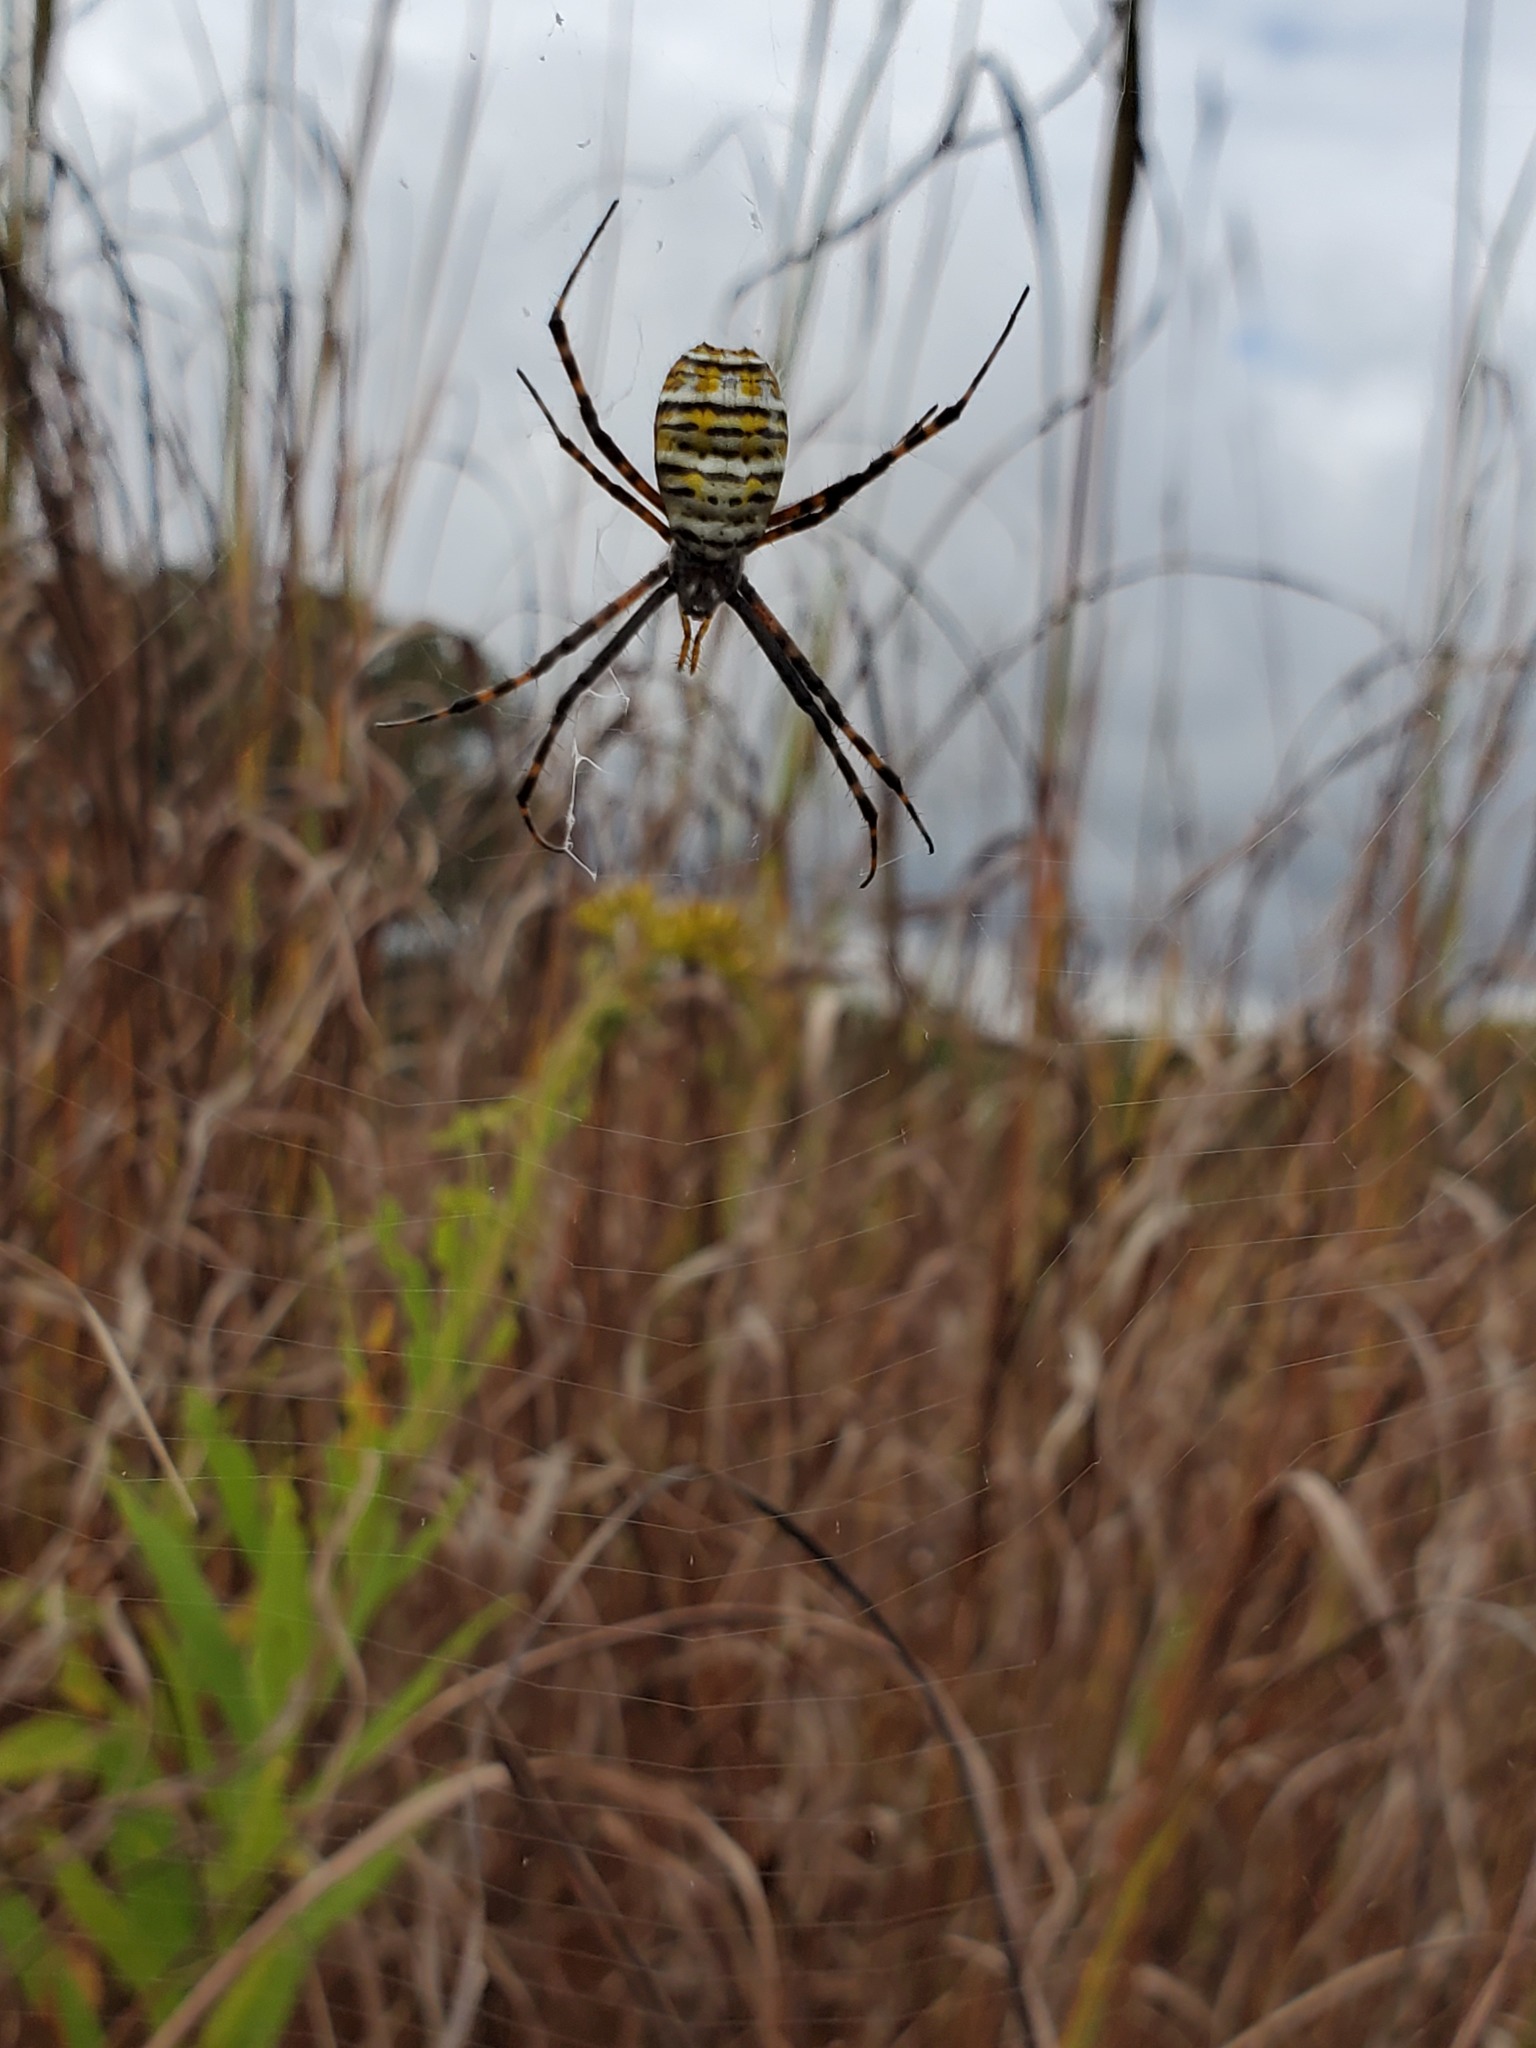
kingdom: Animalia
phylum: Arthropoda
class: Arachnida
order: Araneae
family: Araneidae
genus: Argiope
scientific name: Argiope trifasciata
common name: Banded garden spider
